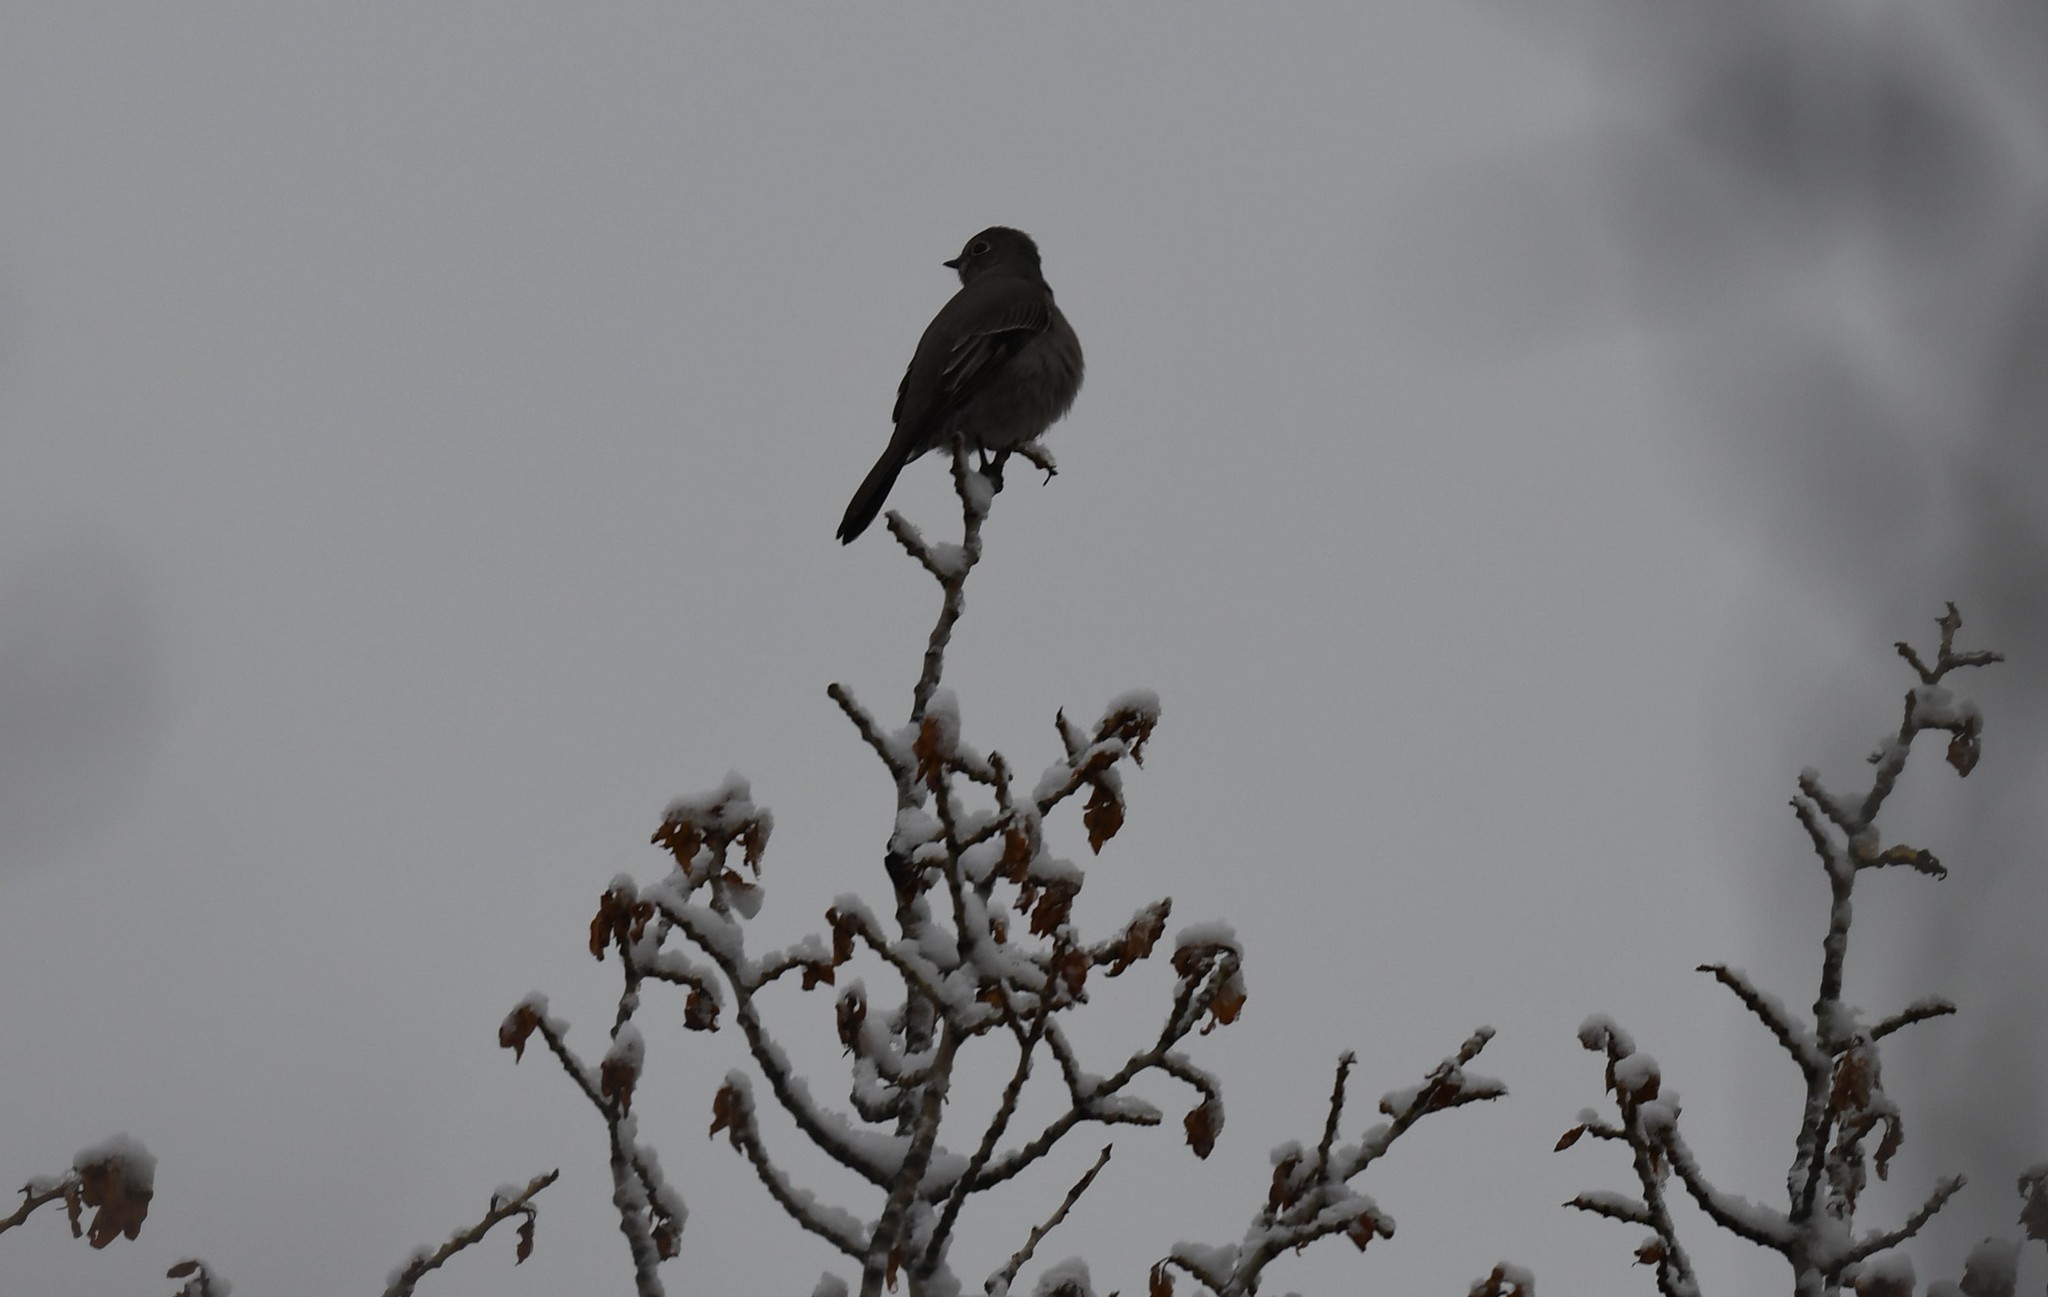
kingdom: Animalia
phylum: Chordata
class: Aves
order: Passeriformes
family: Turdidae
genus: Myadestes
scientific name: Myadestes townsendi
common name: Townsend's solitaire
